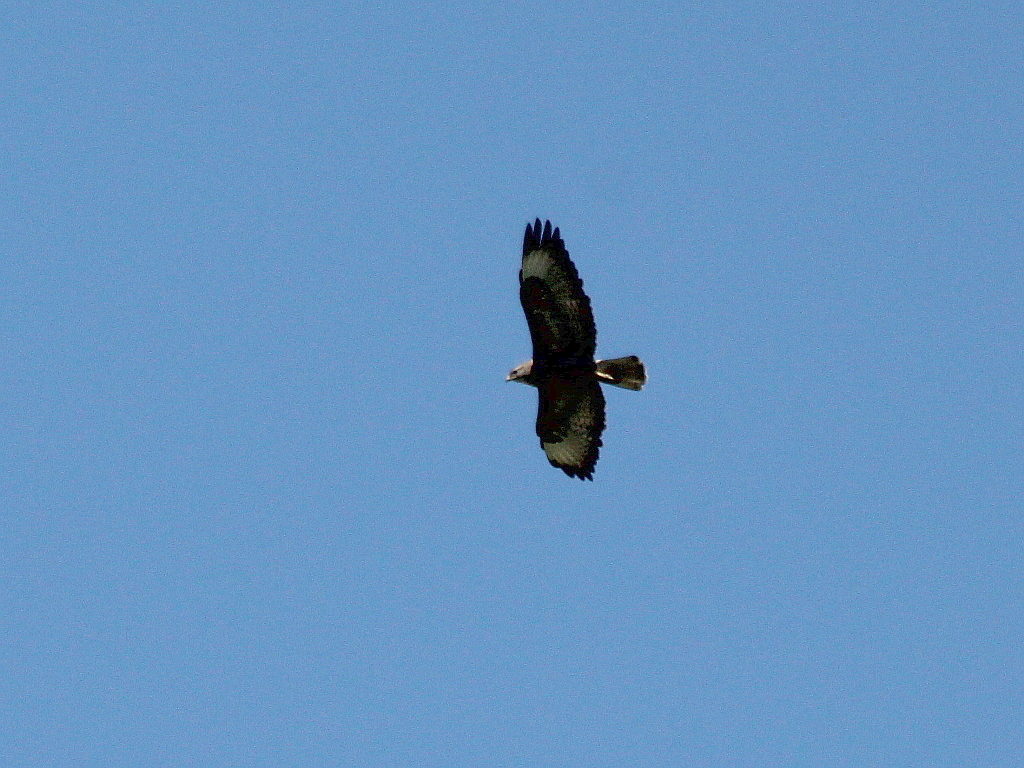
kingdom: Animalia
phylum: Chordata
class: Aves
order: Accipitriformes
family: Accipitridae
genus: Buteo
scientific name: Buteo buteo
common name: Common buzzard
